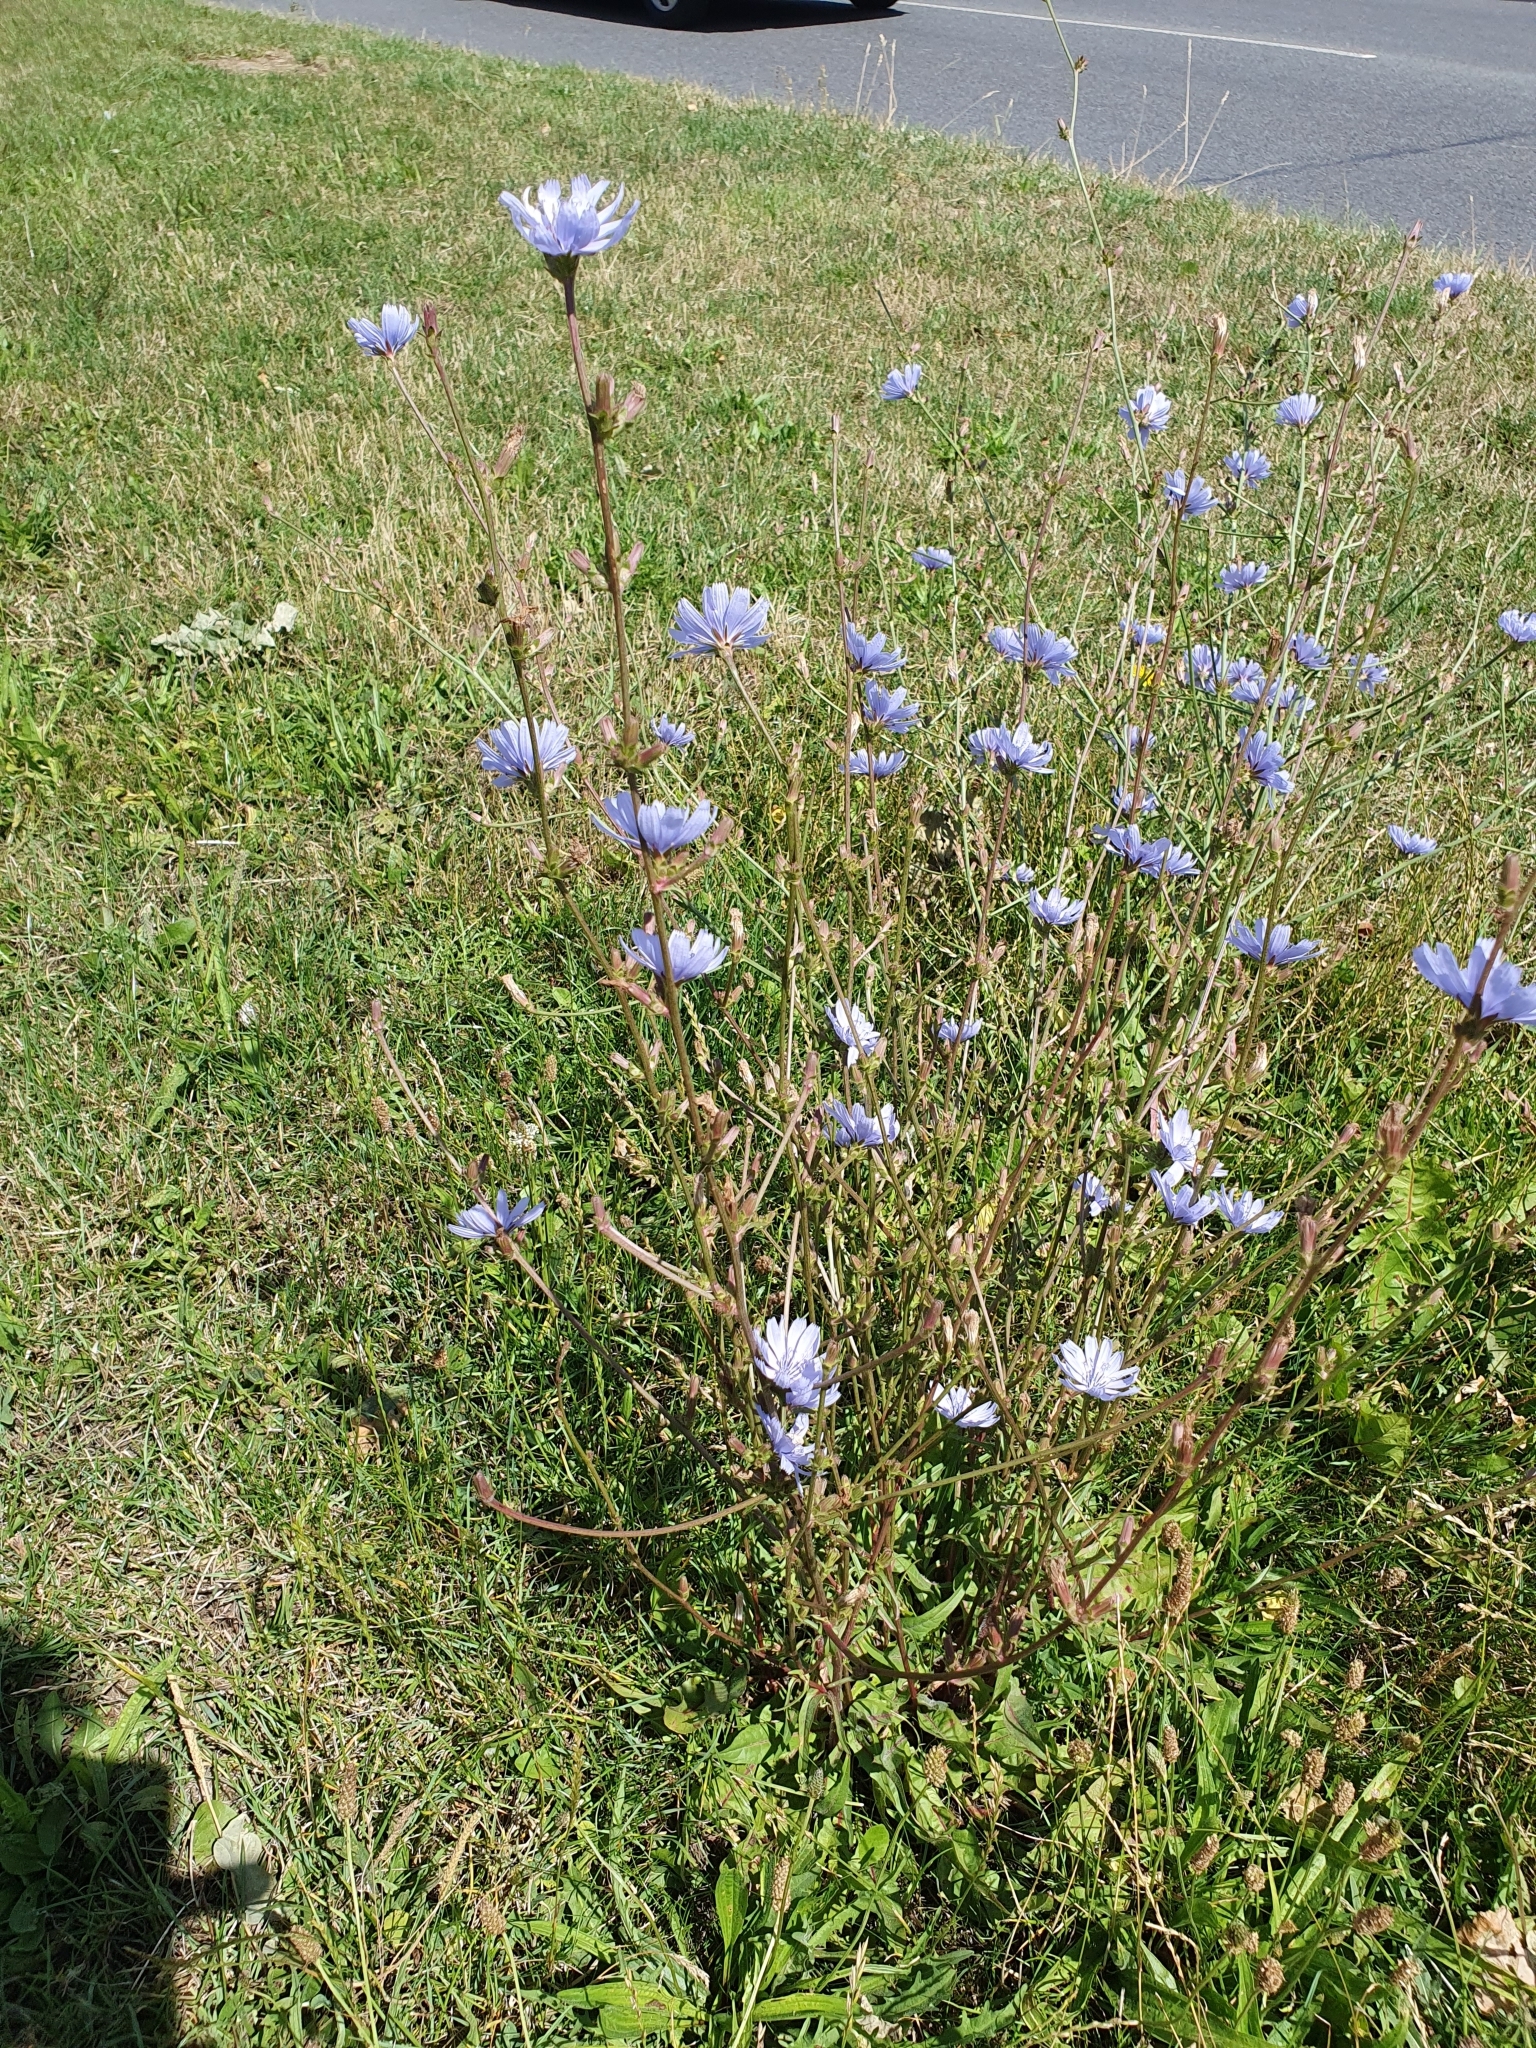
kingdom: Plantae
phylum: Tracheophyta
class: Magnoliopsida
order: Asterales
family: Asteraceae
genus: Cichorium
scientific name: Cichorium intybus
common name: Chicory
